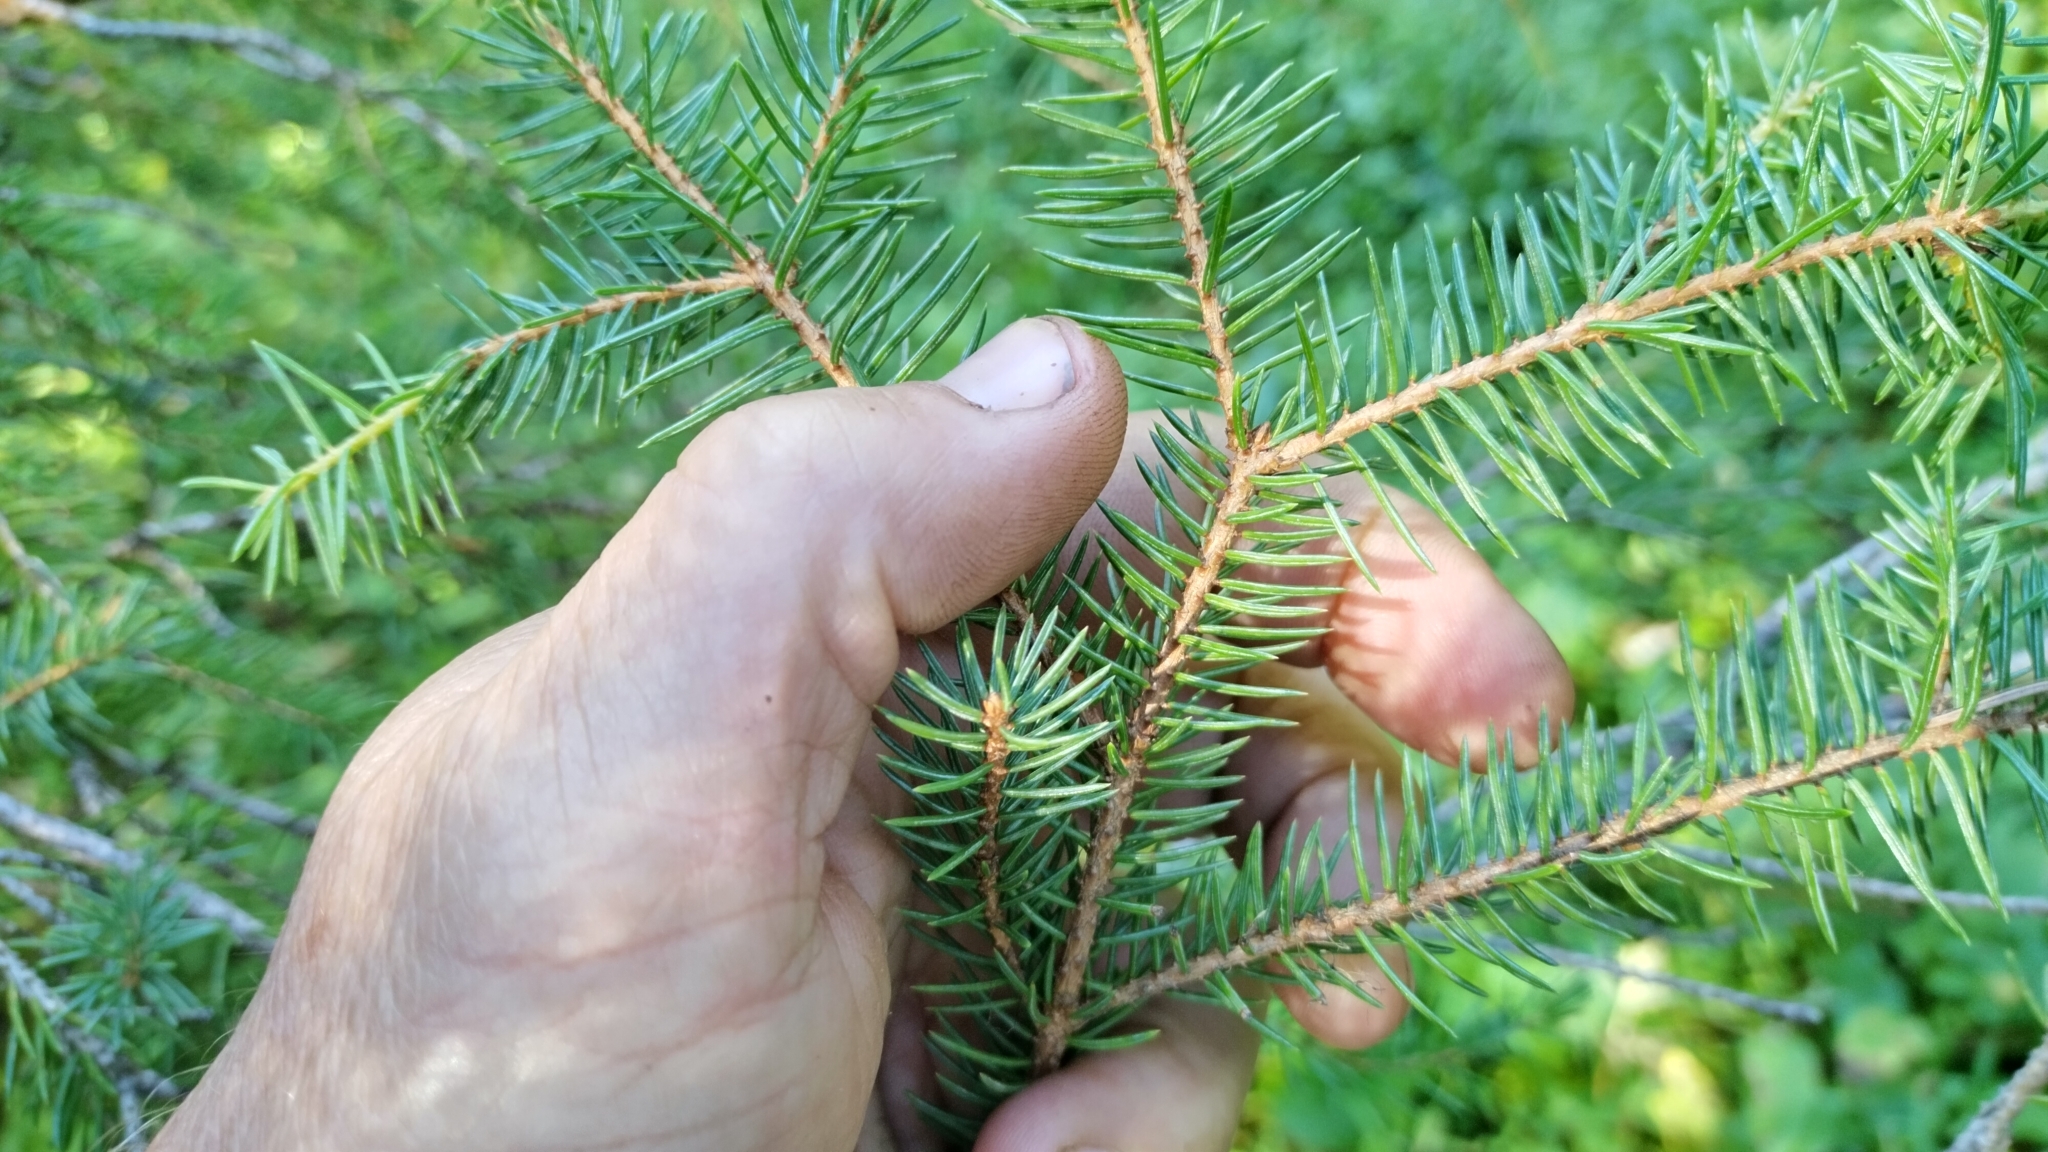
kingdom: Plantae
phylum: Tracheophyta
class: Pinopsida
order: Pinales
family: Pinaceae
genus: Picea
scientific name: Picea engelmannii
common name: Engelmann spruce
